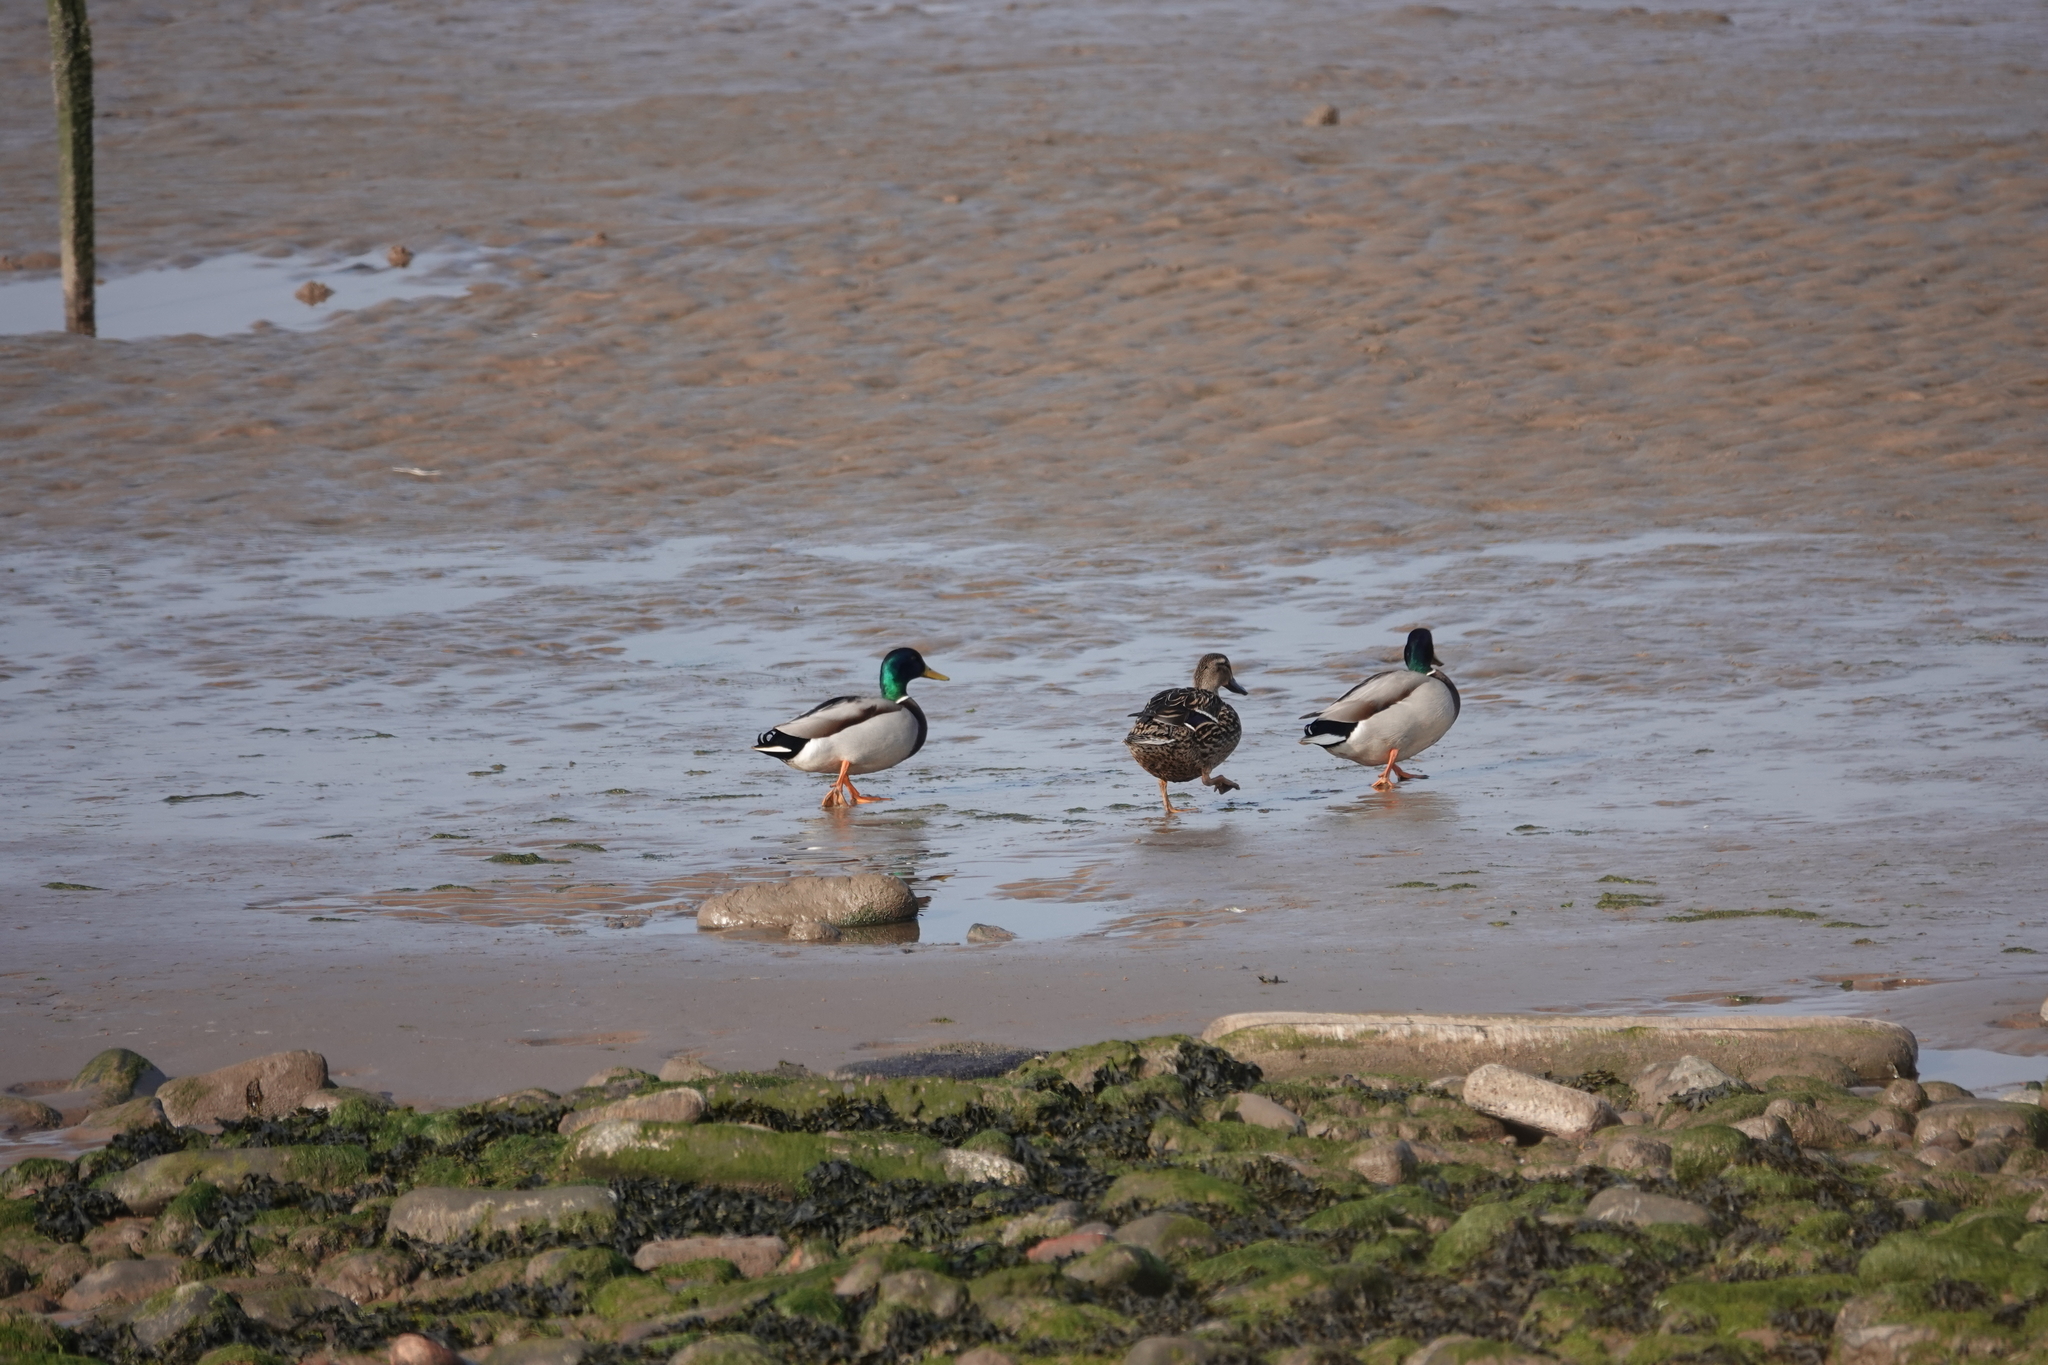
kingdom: Animalia
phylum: Chordata
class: Aves
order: Anseriformes
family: Anatidae
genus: Anas
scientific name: Anas platyrhynchos
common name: Mallard
